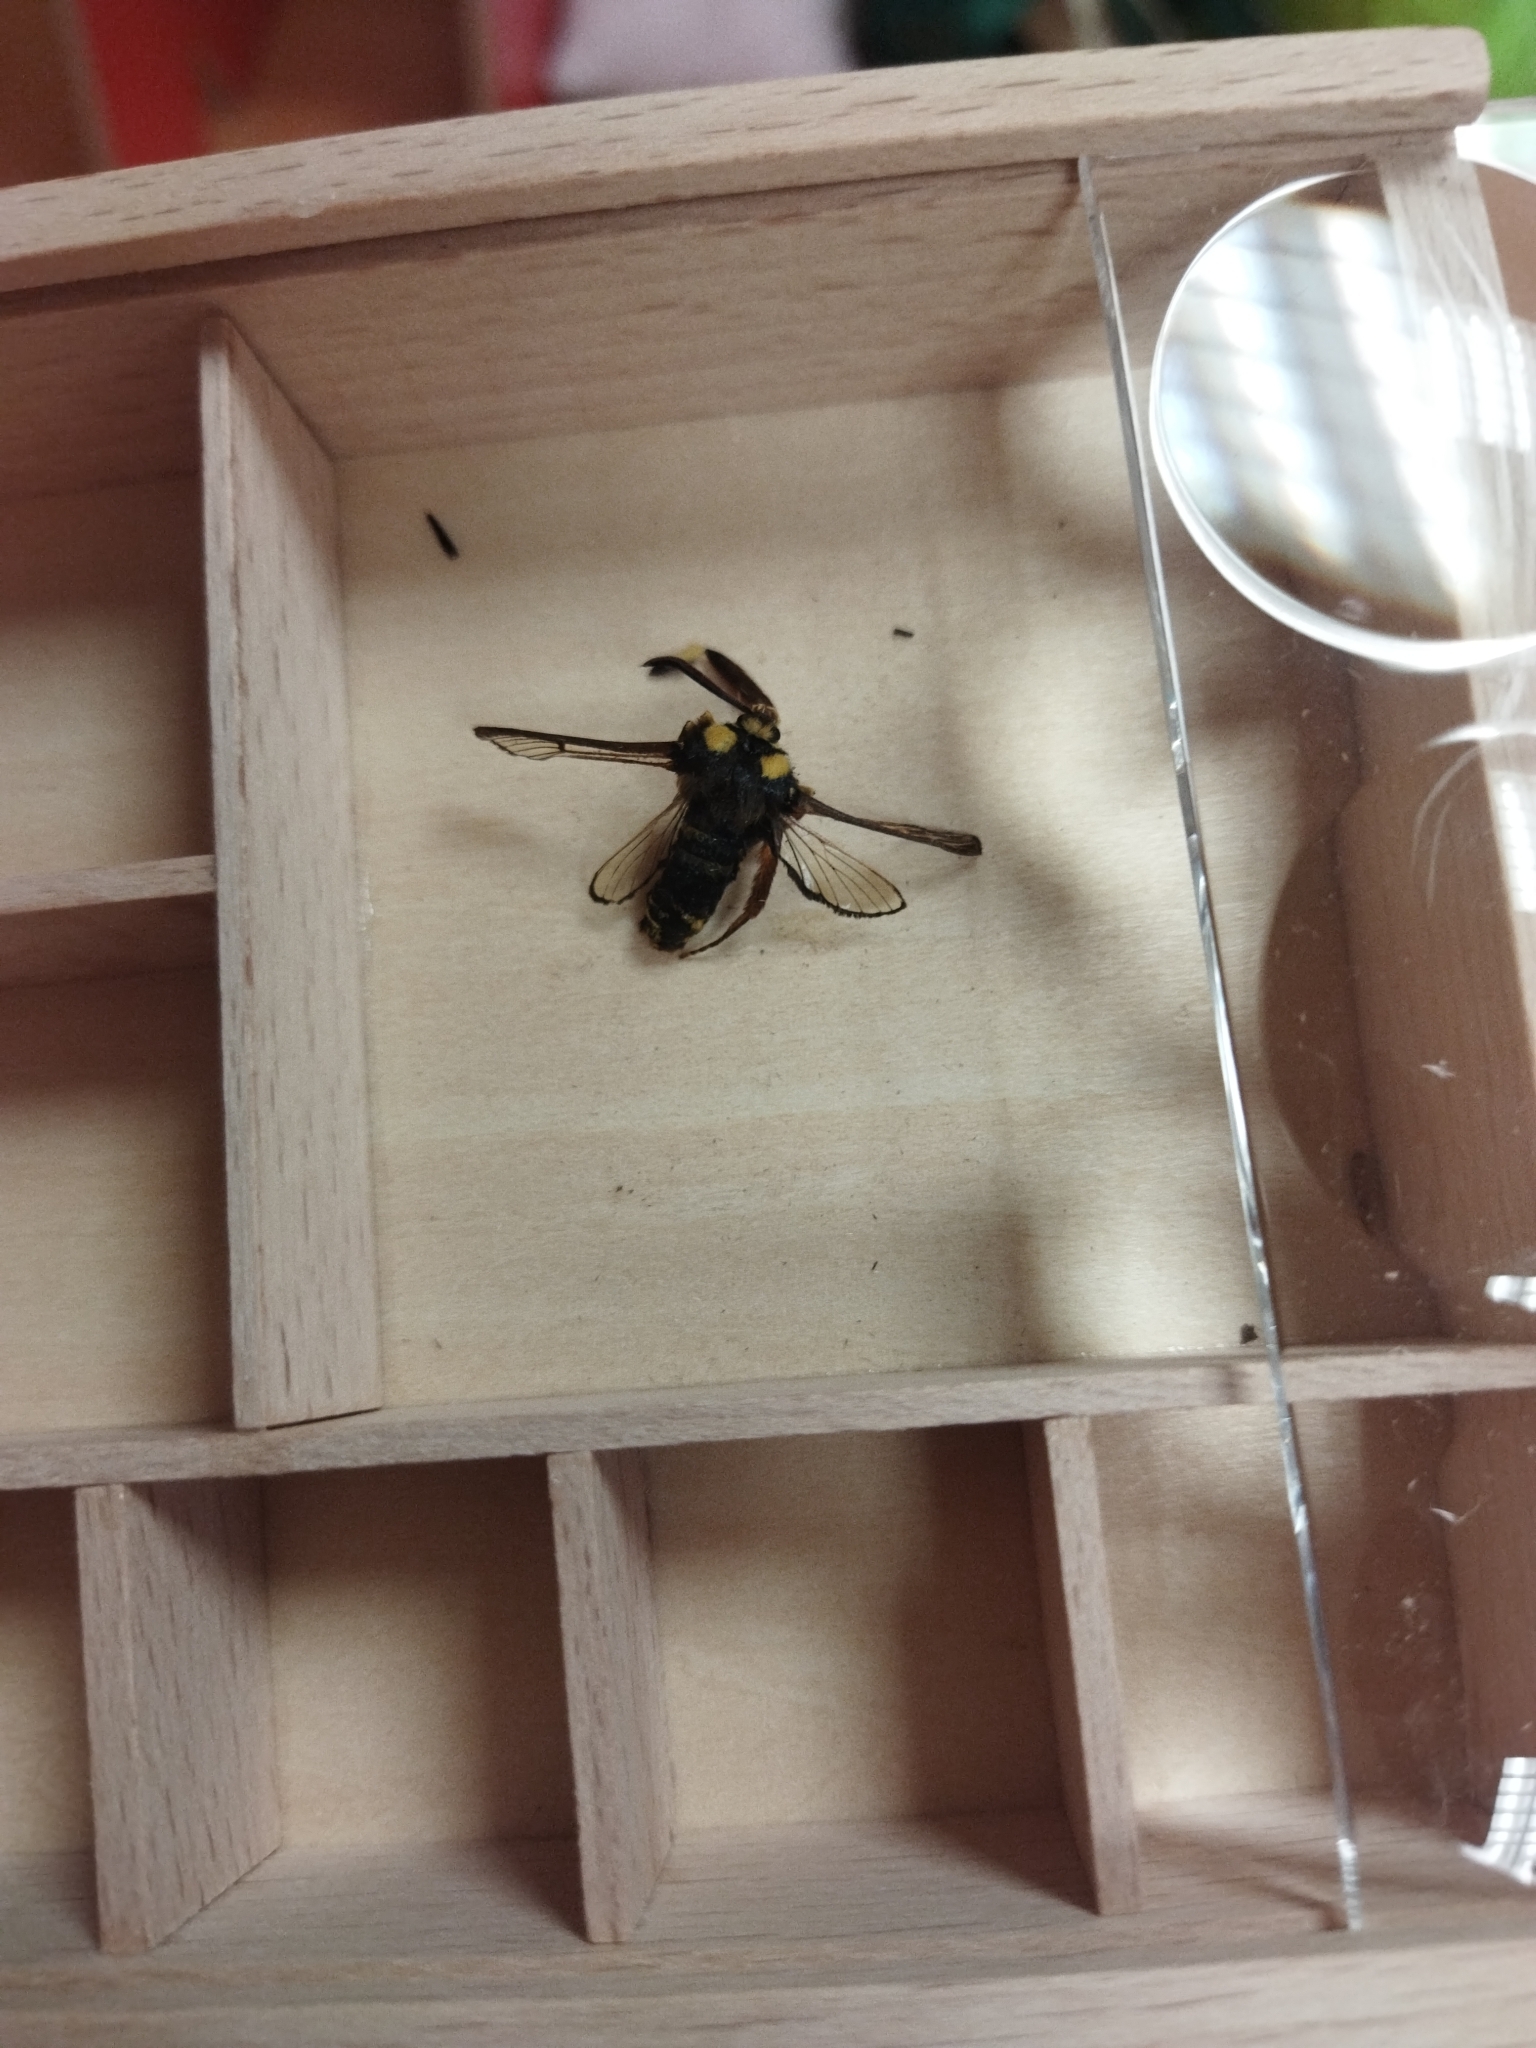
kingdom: Animalia
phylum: Arthropoda
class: Insecta
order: Lepidoptera
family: Sesiidae
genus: Sesia
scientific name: Sesia apiformis
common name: Hornet moth
